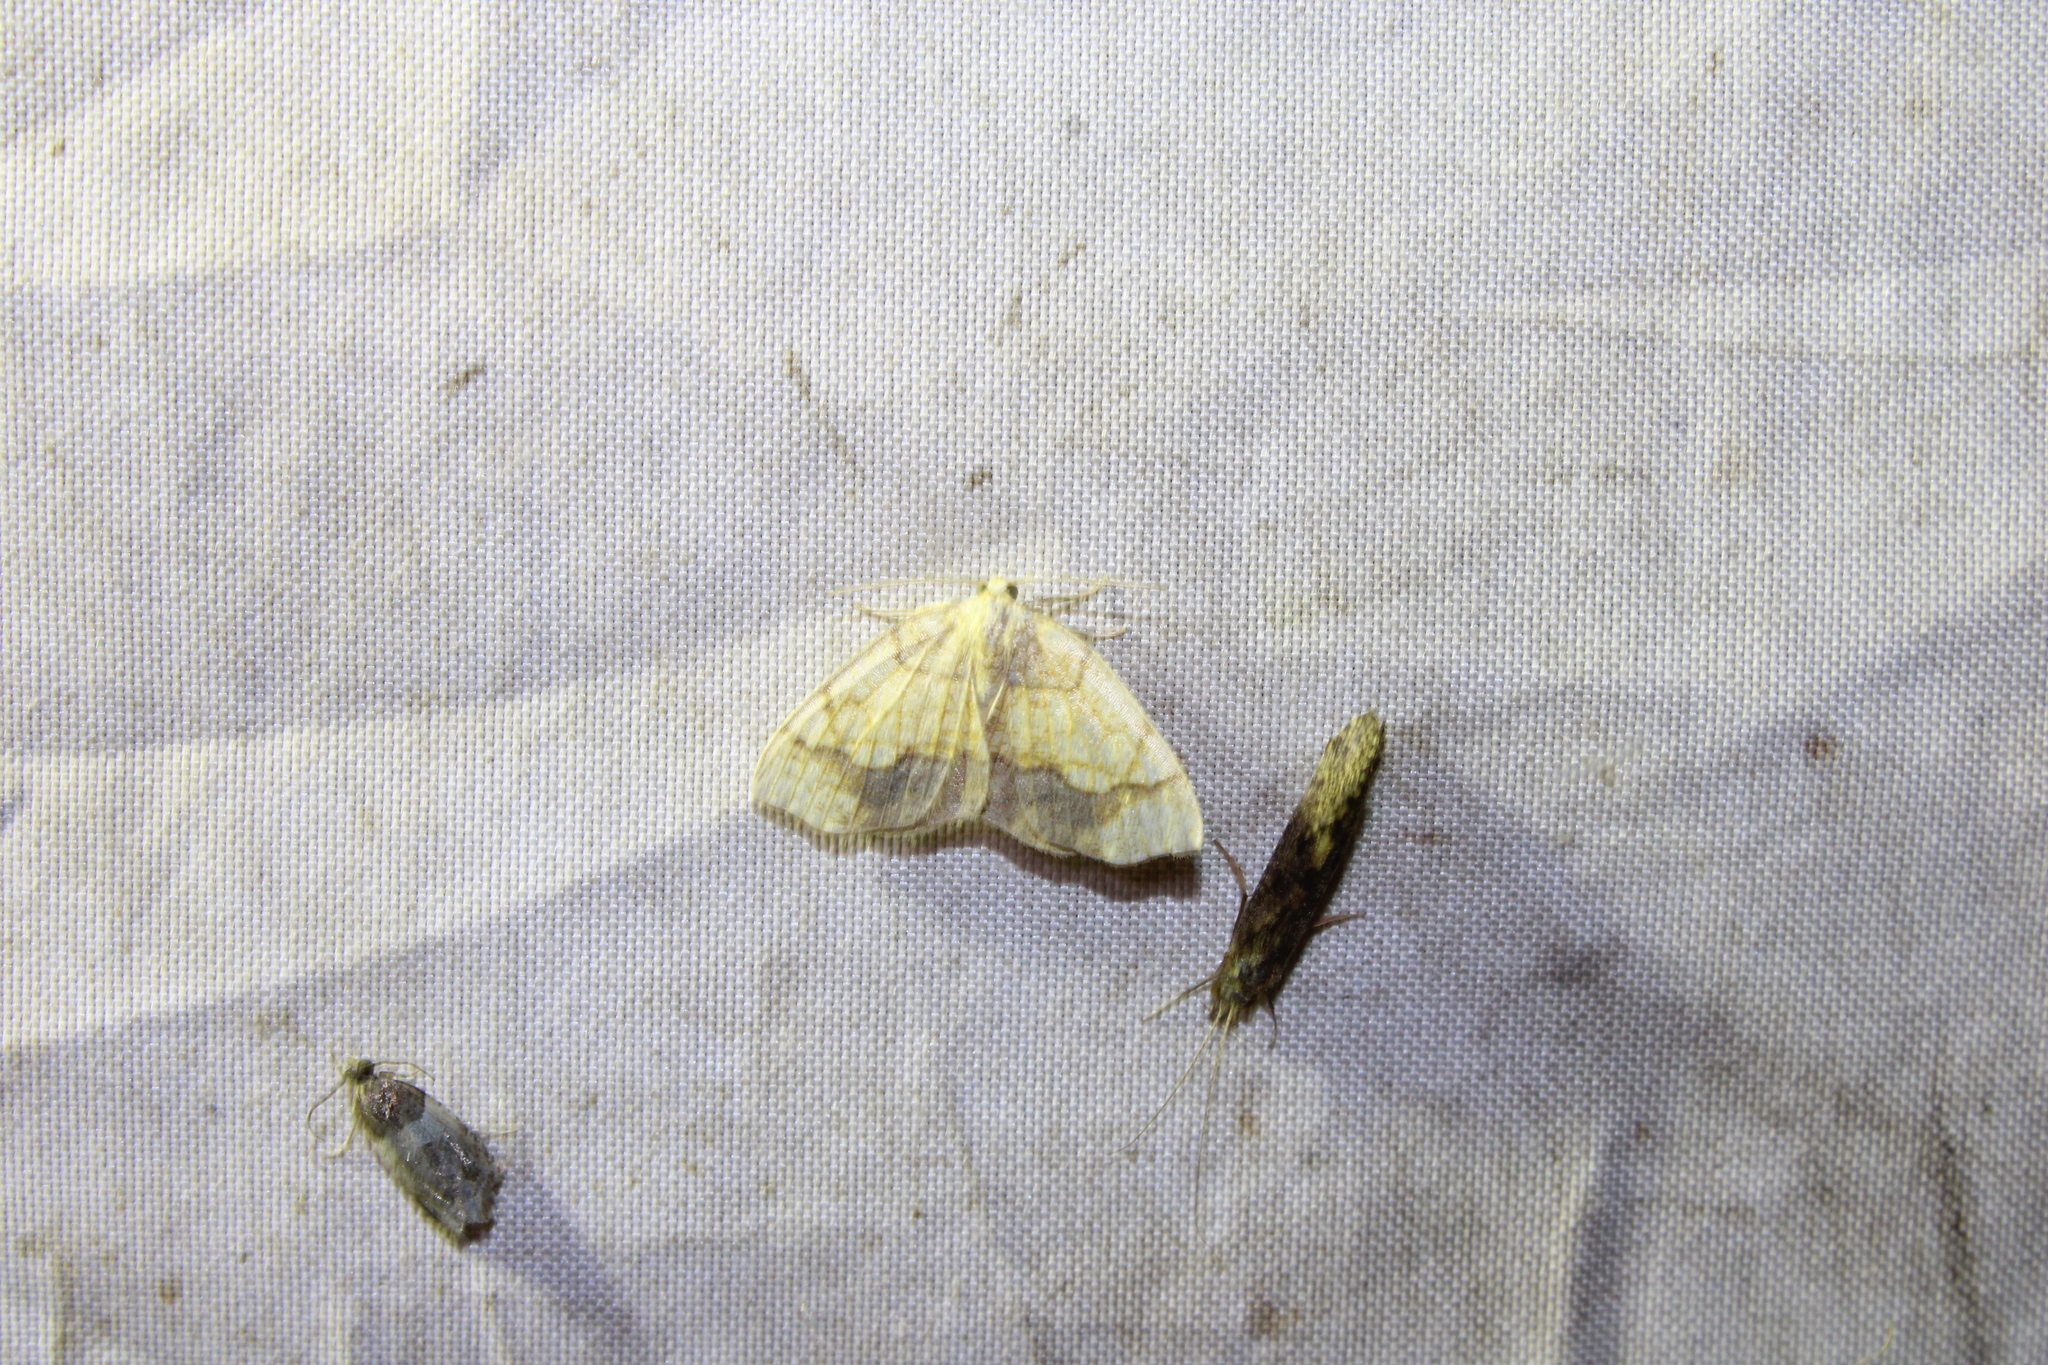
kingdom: Animalia
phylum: Arthropoda
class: Insecta
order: Lepidoptera
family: Geometridae
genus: Nematocampa
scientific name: Nematocampa resistaria
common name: Horned spanworm moth
